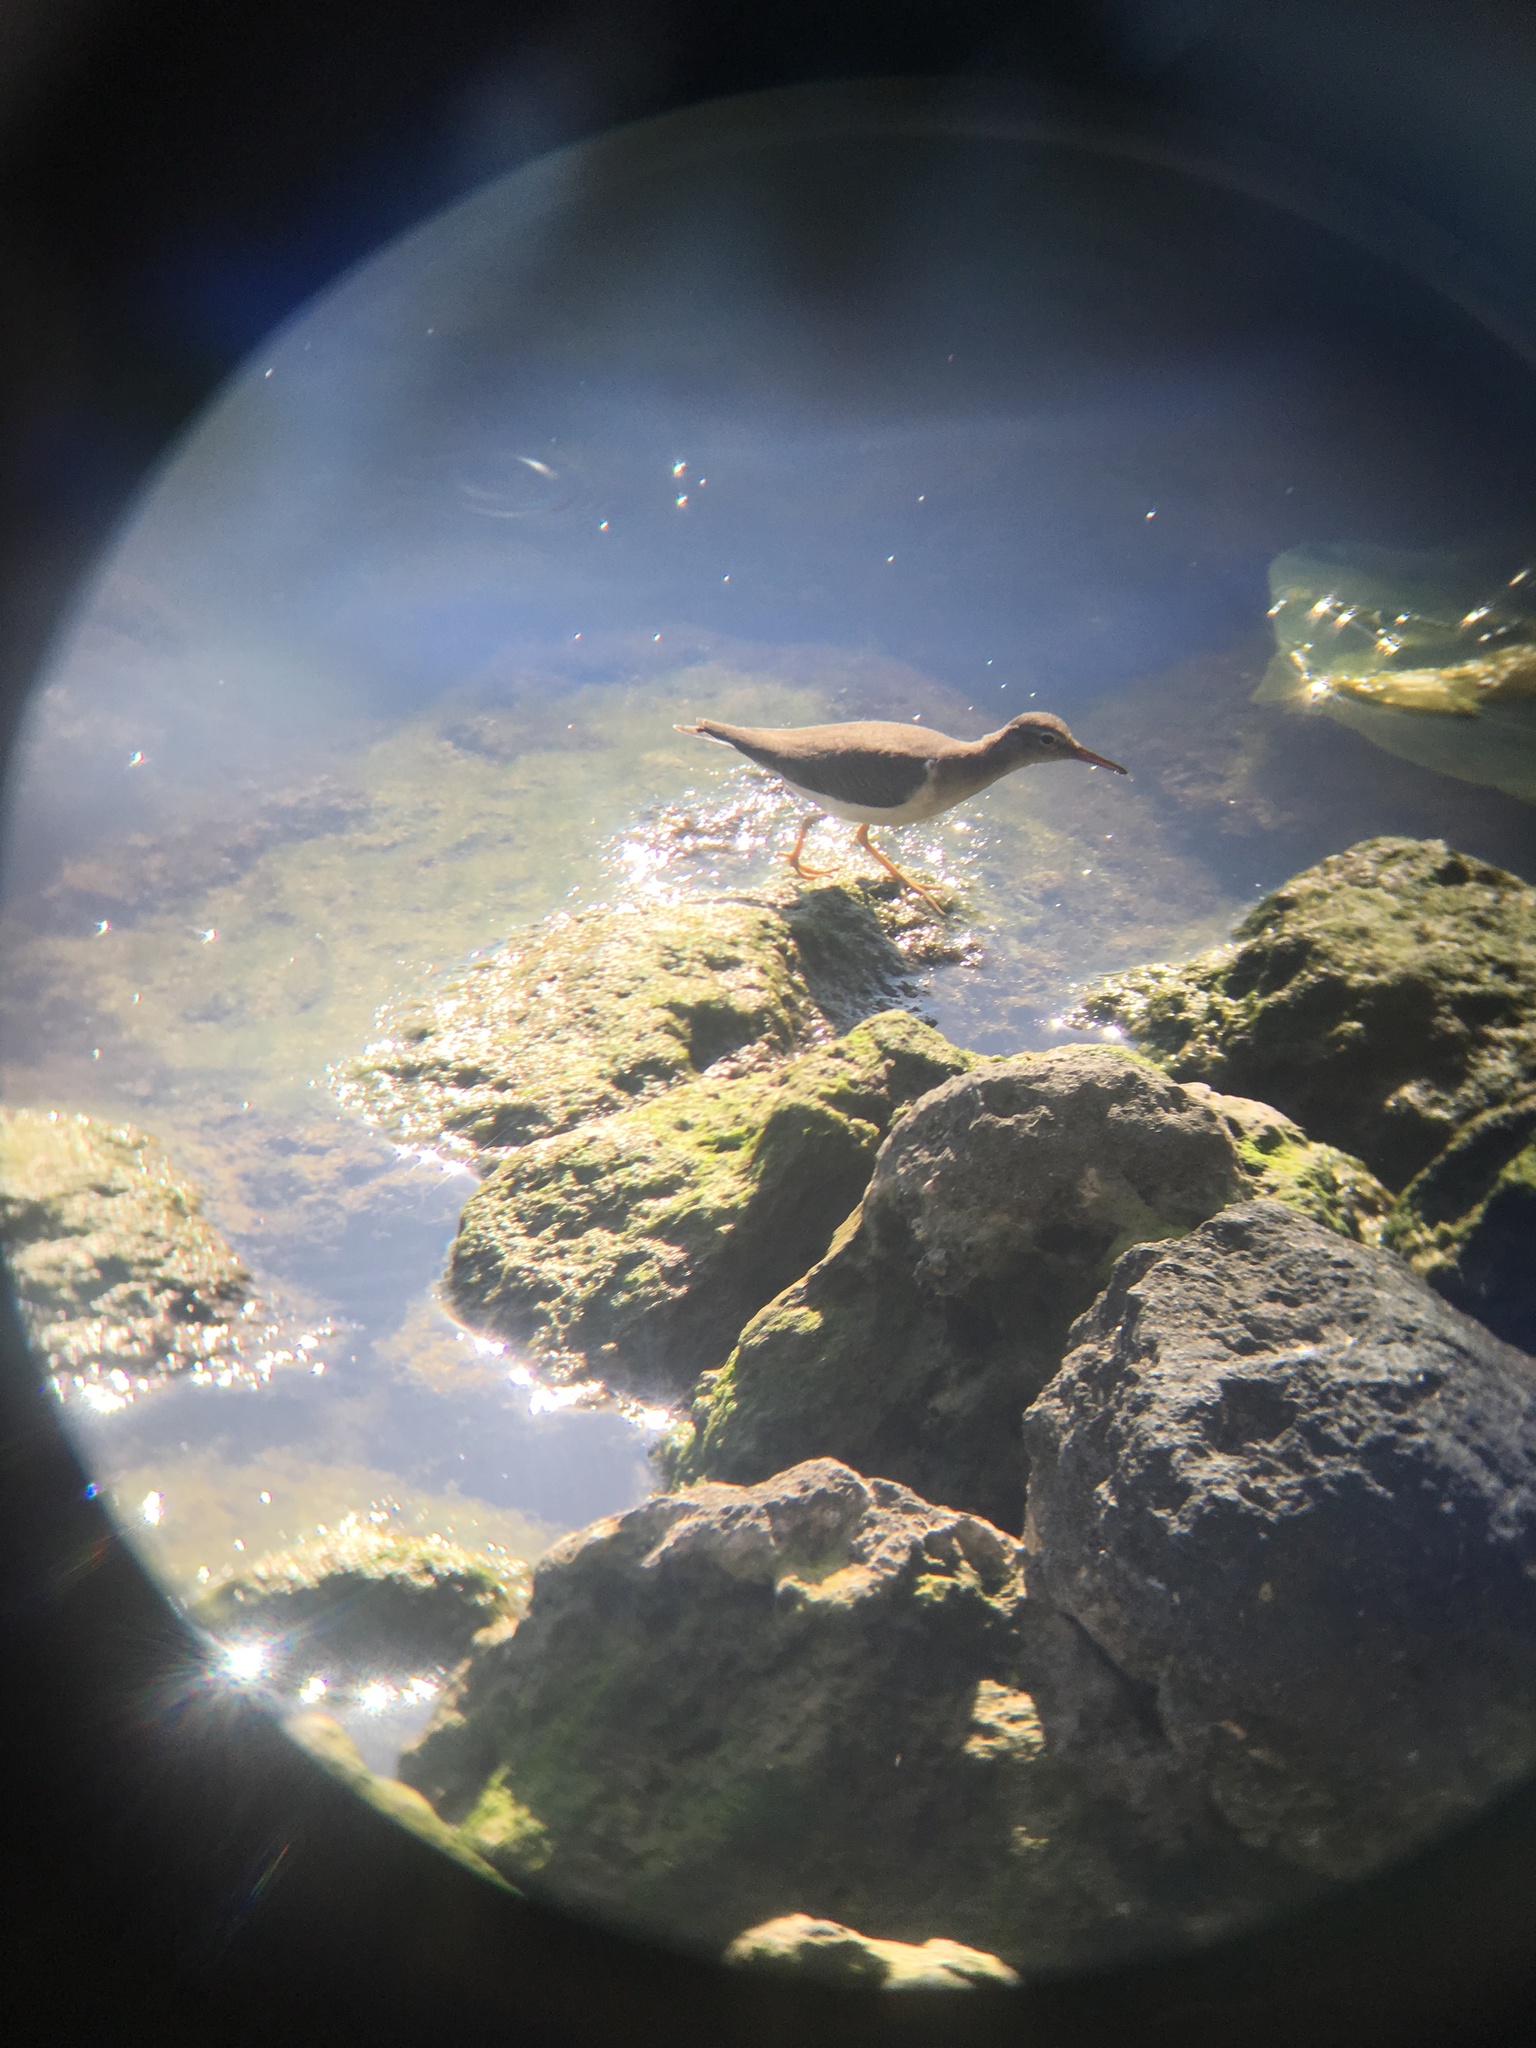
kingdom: Animalia
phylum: Chordata
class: Aves
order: Charadriiformes
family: Scolopacidae
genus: Actitis
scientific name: Actitis macularius
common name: Spotted sandpiper
